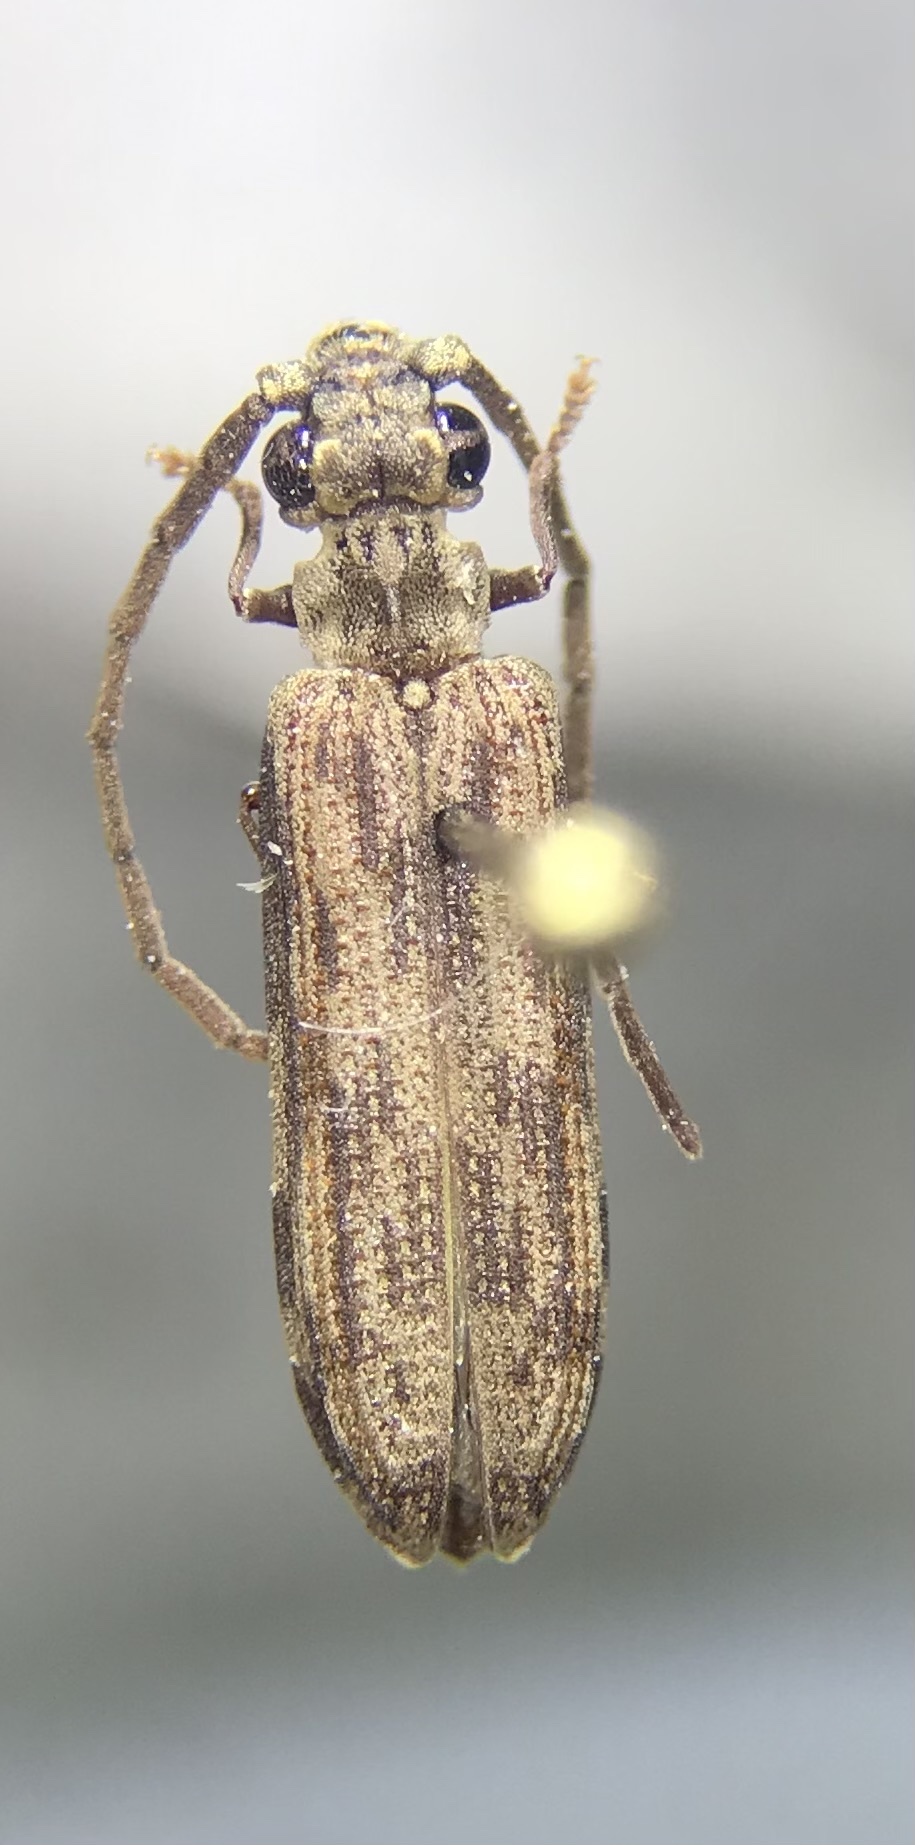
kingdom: Animalia
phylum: Arthropoda
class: Insecta
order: Coleoptera
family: Cupedidae
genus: Tenomerga
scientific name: Tenomerga cinerea
